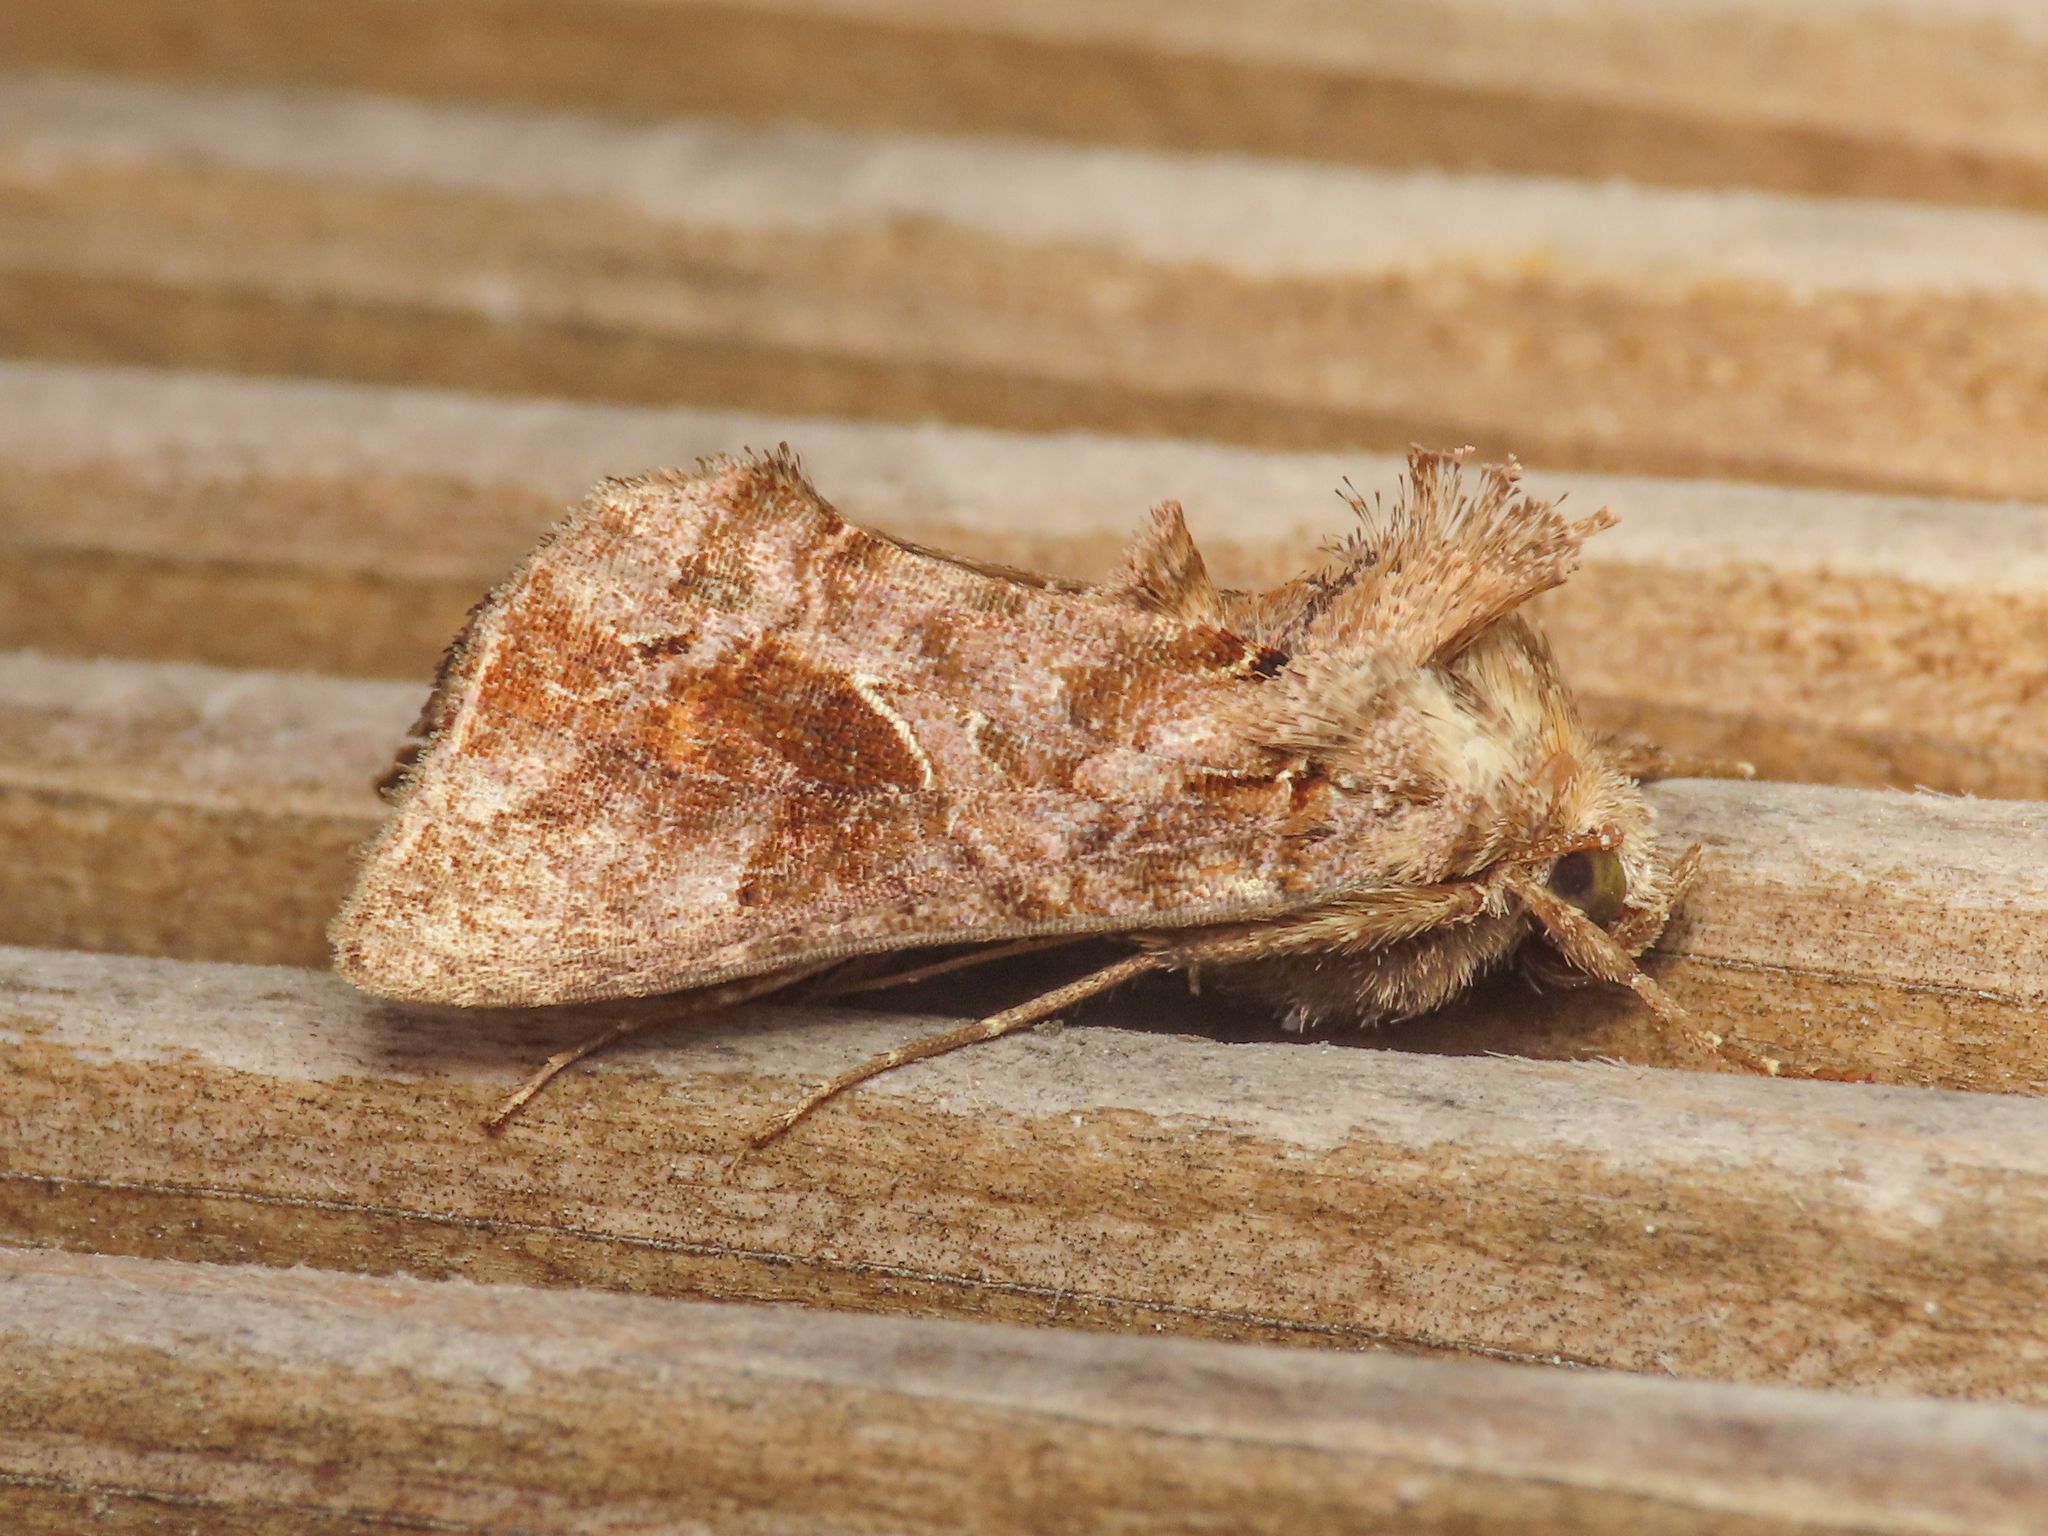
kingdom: Animalia
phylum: Arthropoda
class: Insecta
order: Lepidoptera
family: Noctuidae
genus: Ctenoplusia
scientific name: Ctenoplusia accentifera
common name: Accent gem
